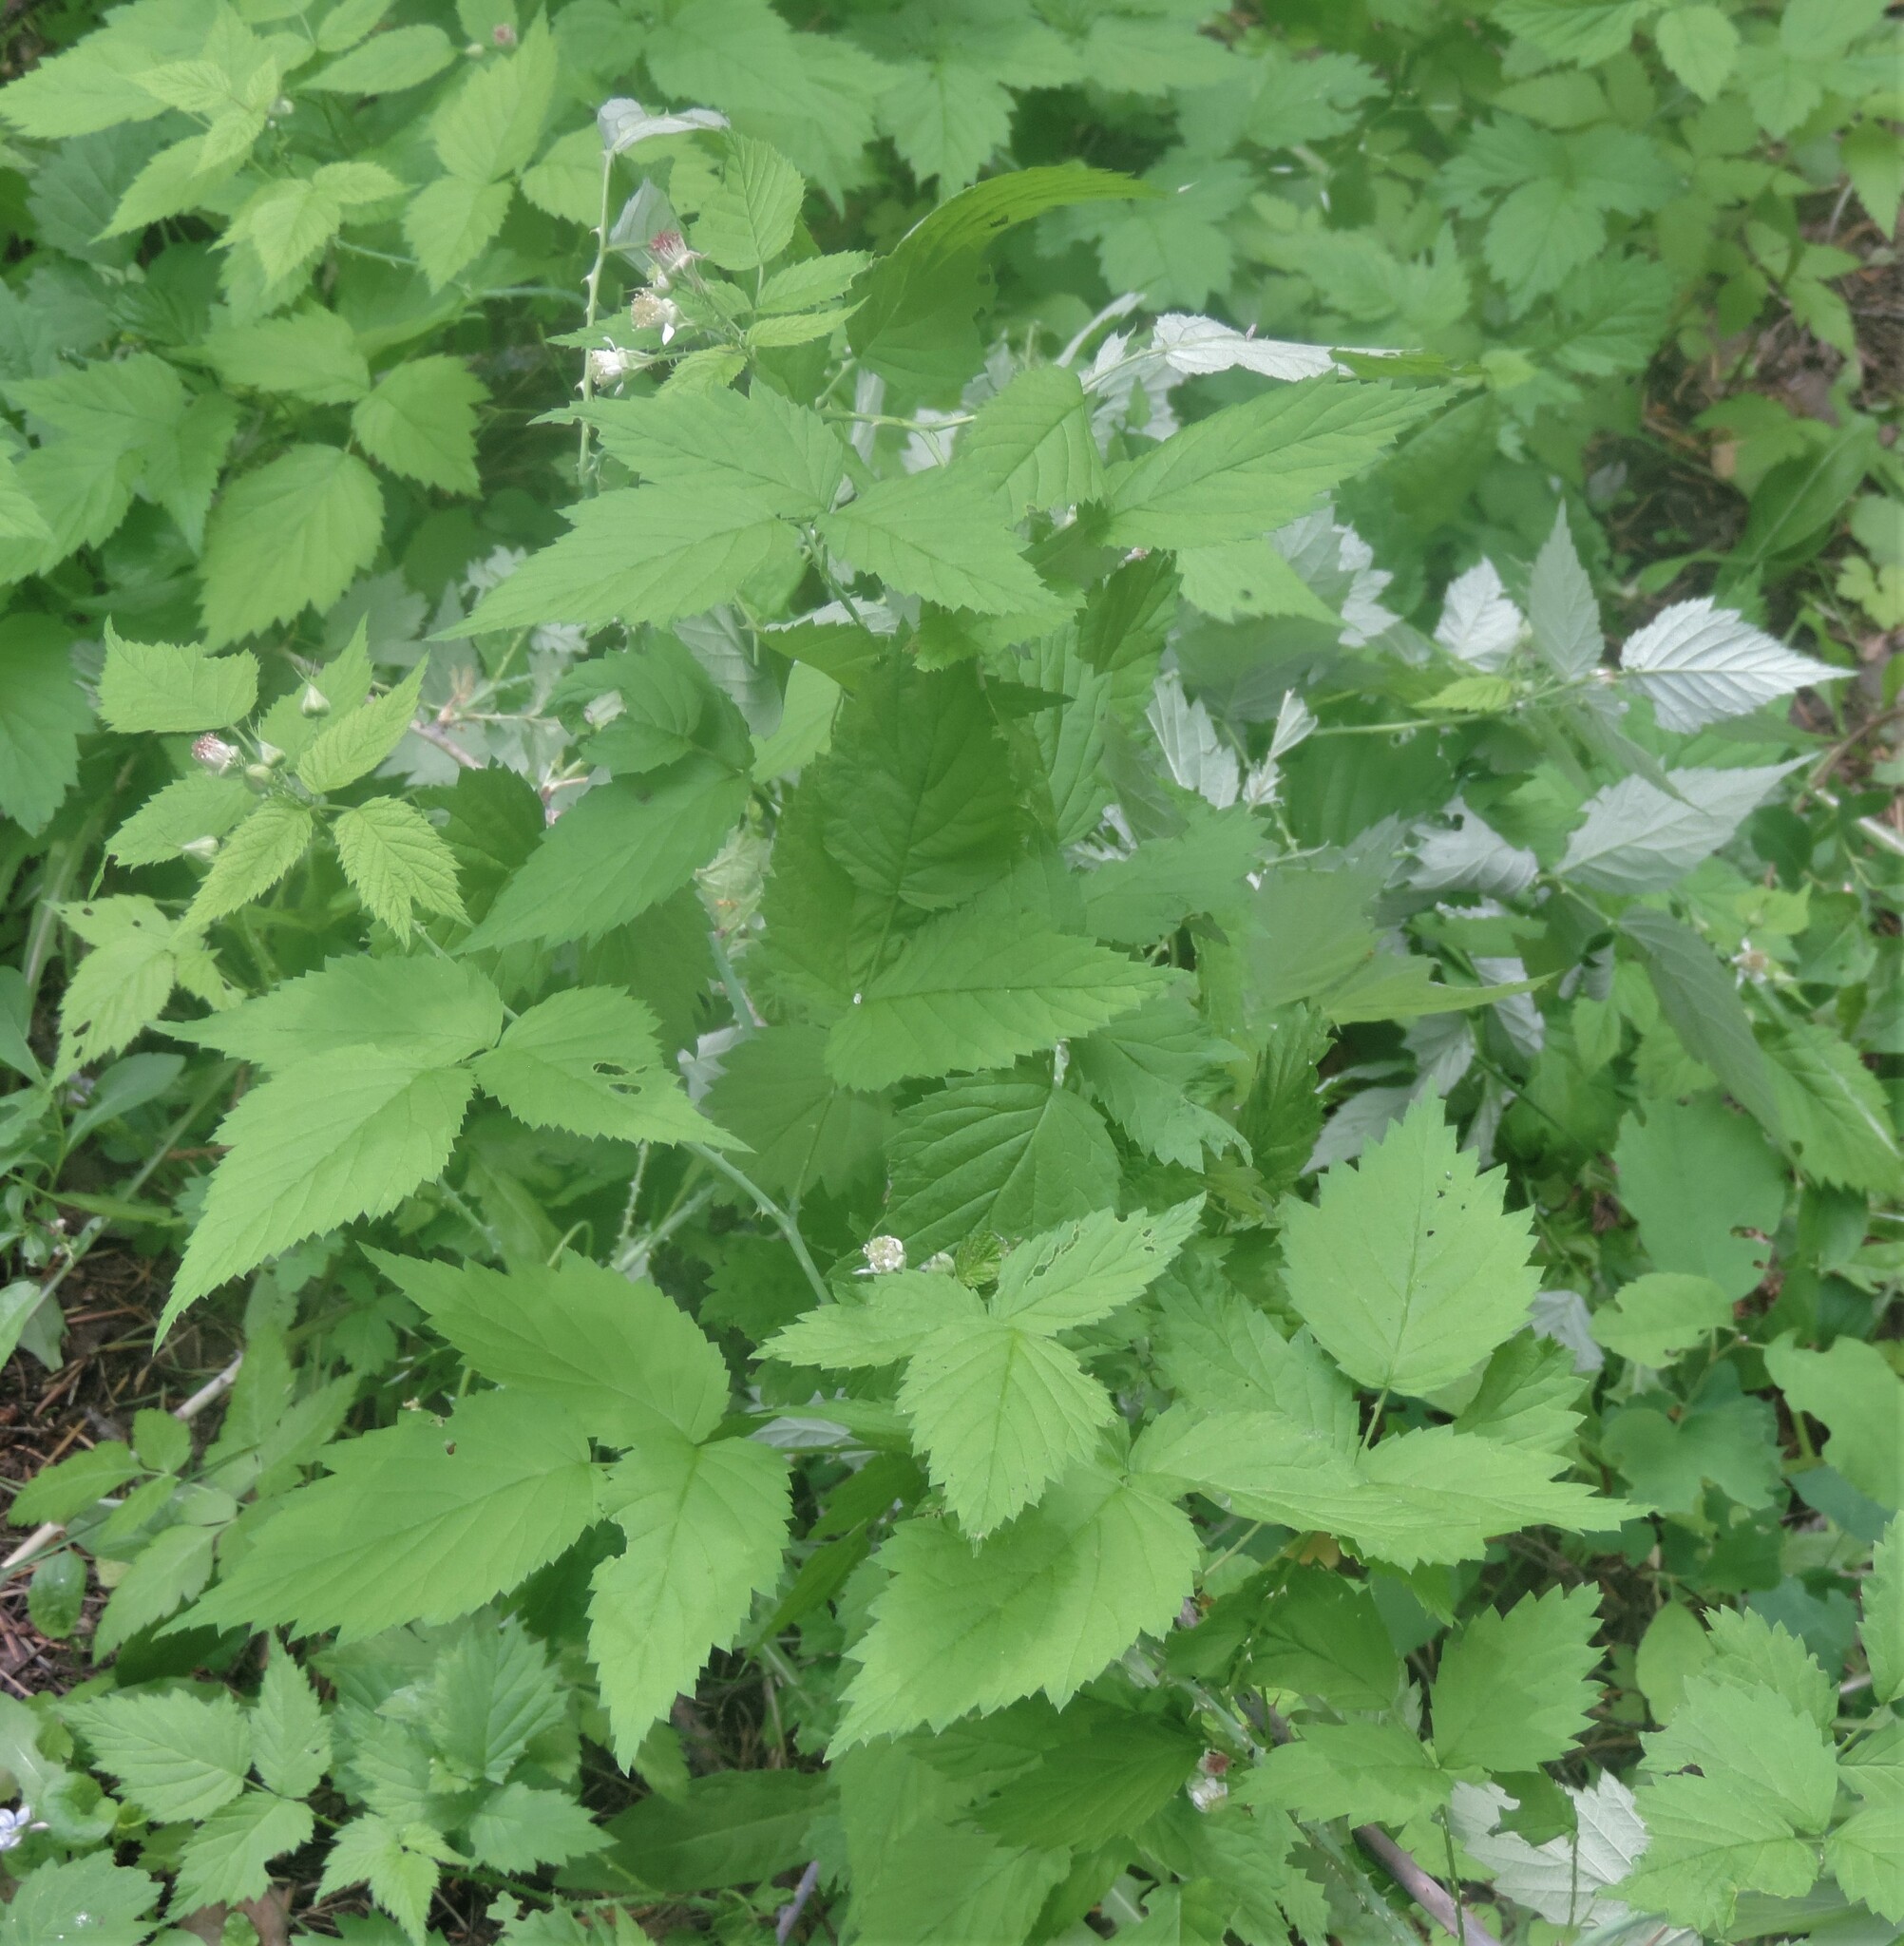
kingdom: Plantae
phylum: Tracheophyta
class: Magnoliopsida
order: Rosales
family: Rosaceae
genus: Rubus
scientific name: Rubus idaeus
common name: Raspberry
